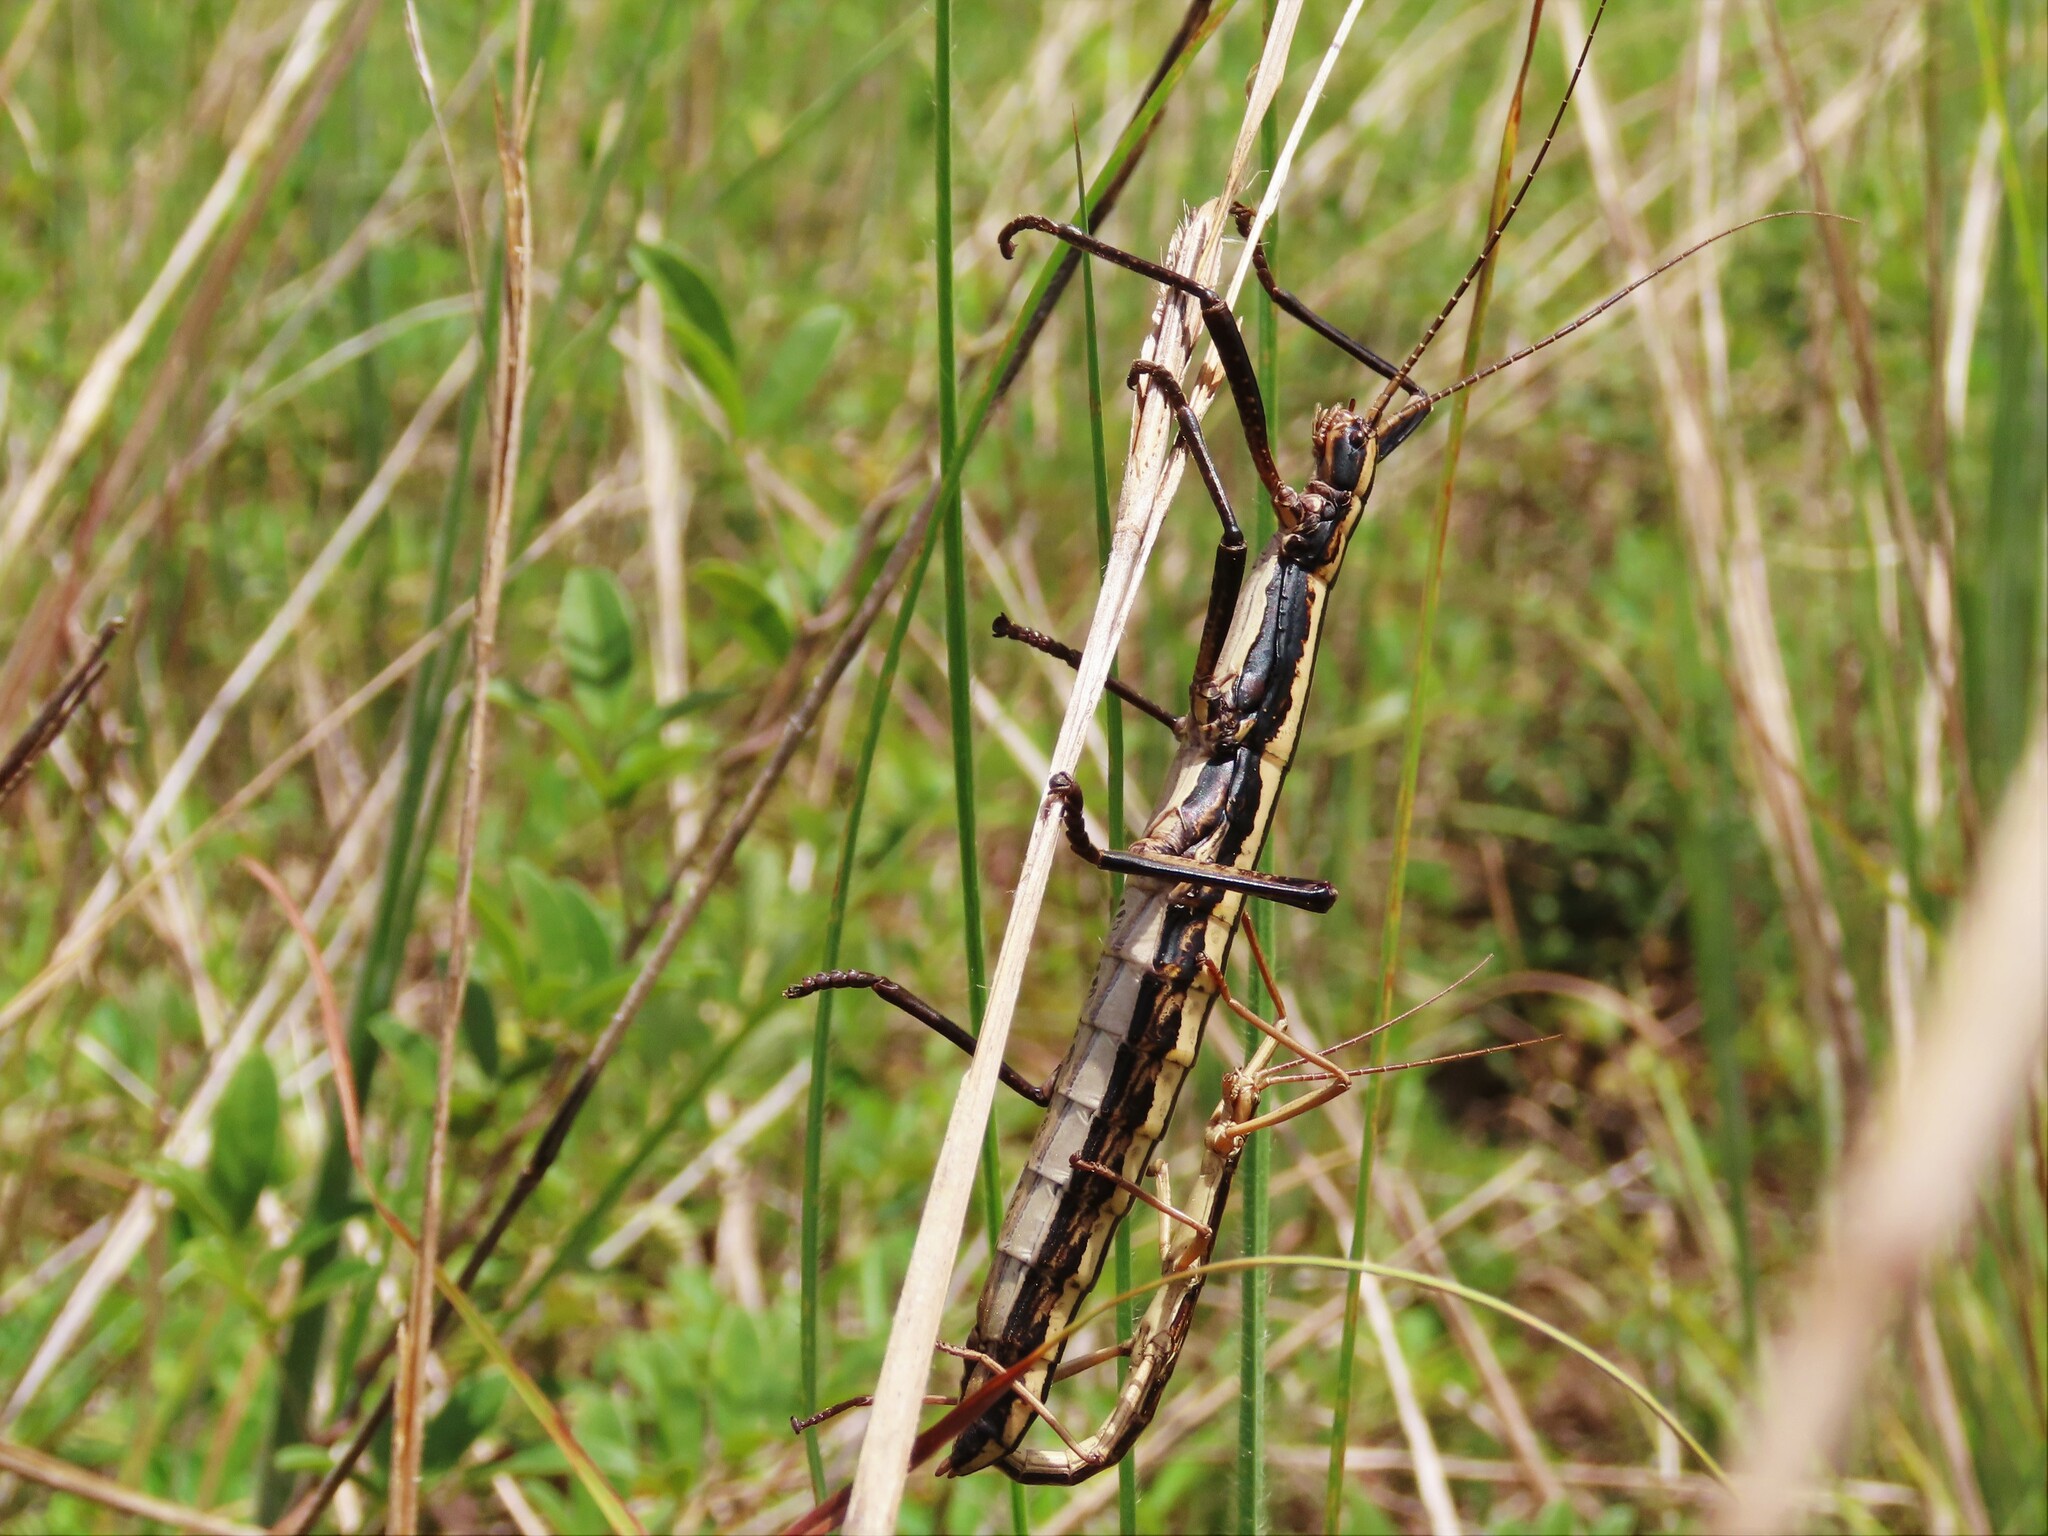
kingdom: Animalia
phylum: Arthropoda
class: Insecta
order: Phasmida
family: Pseudophasmatidae
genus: Anisomorpha
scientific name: Anisomorpha buprestoides
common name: Florida stick insect
